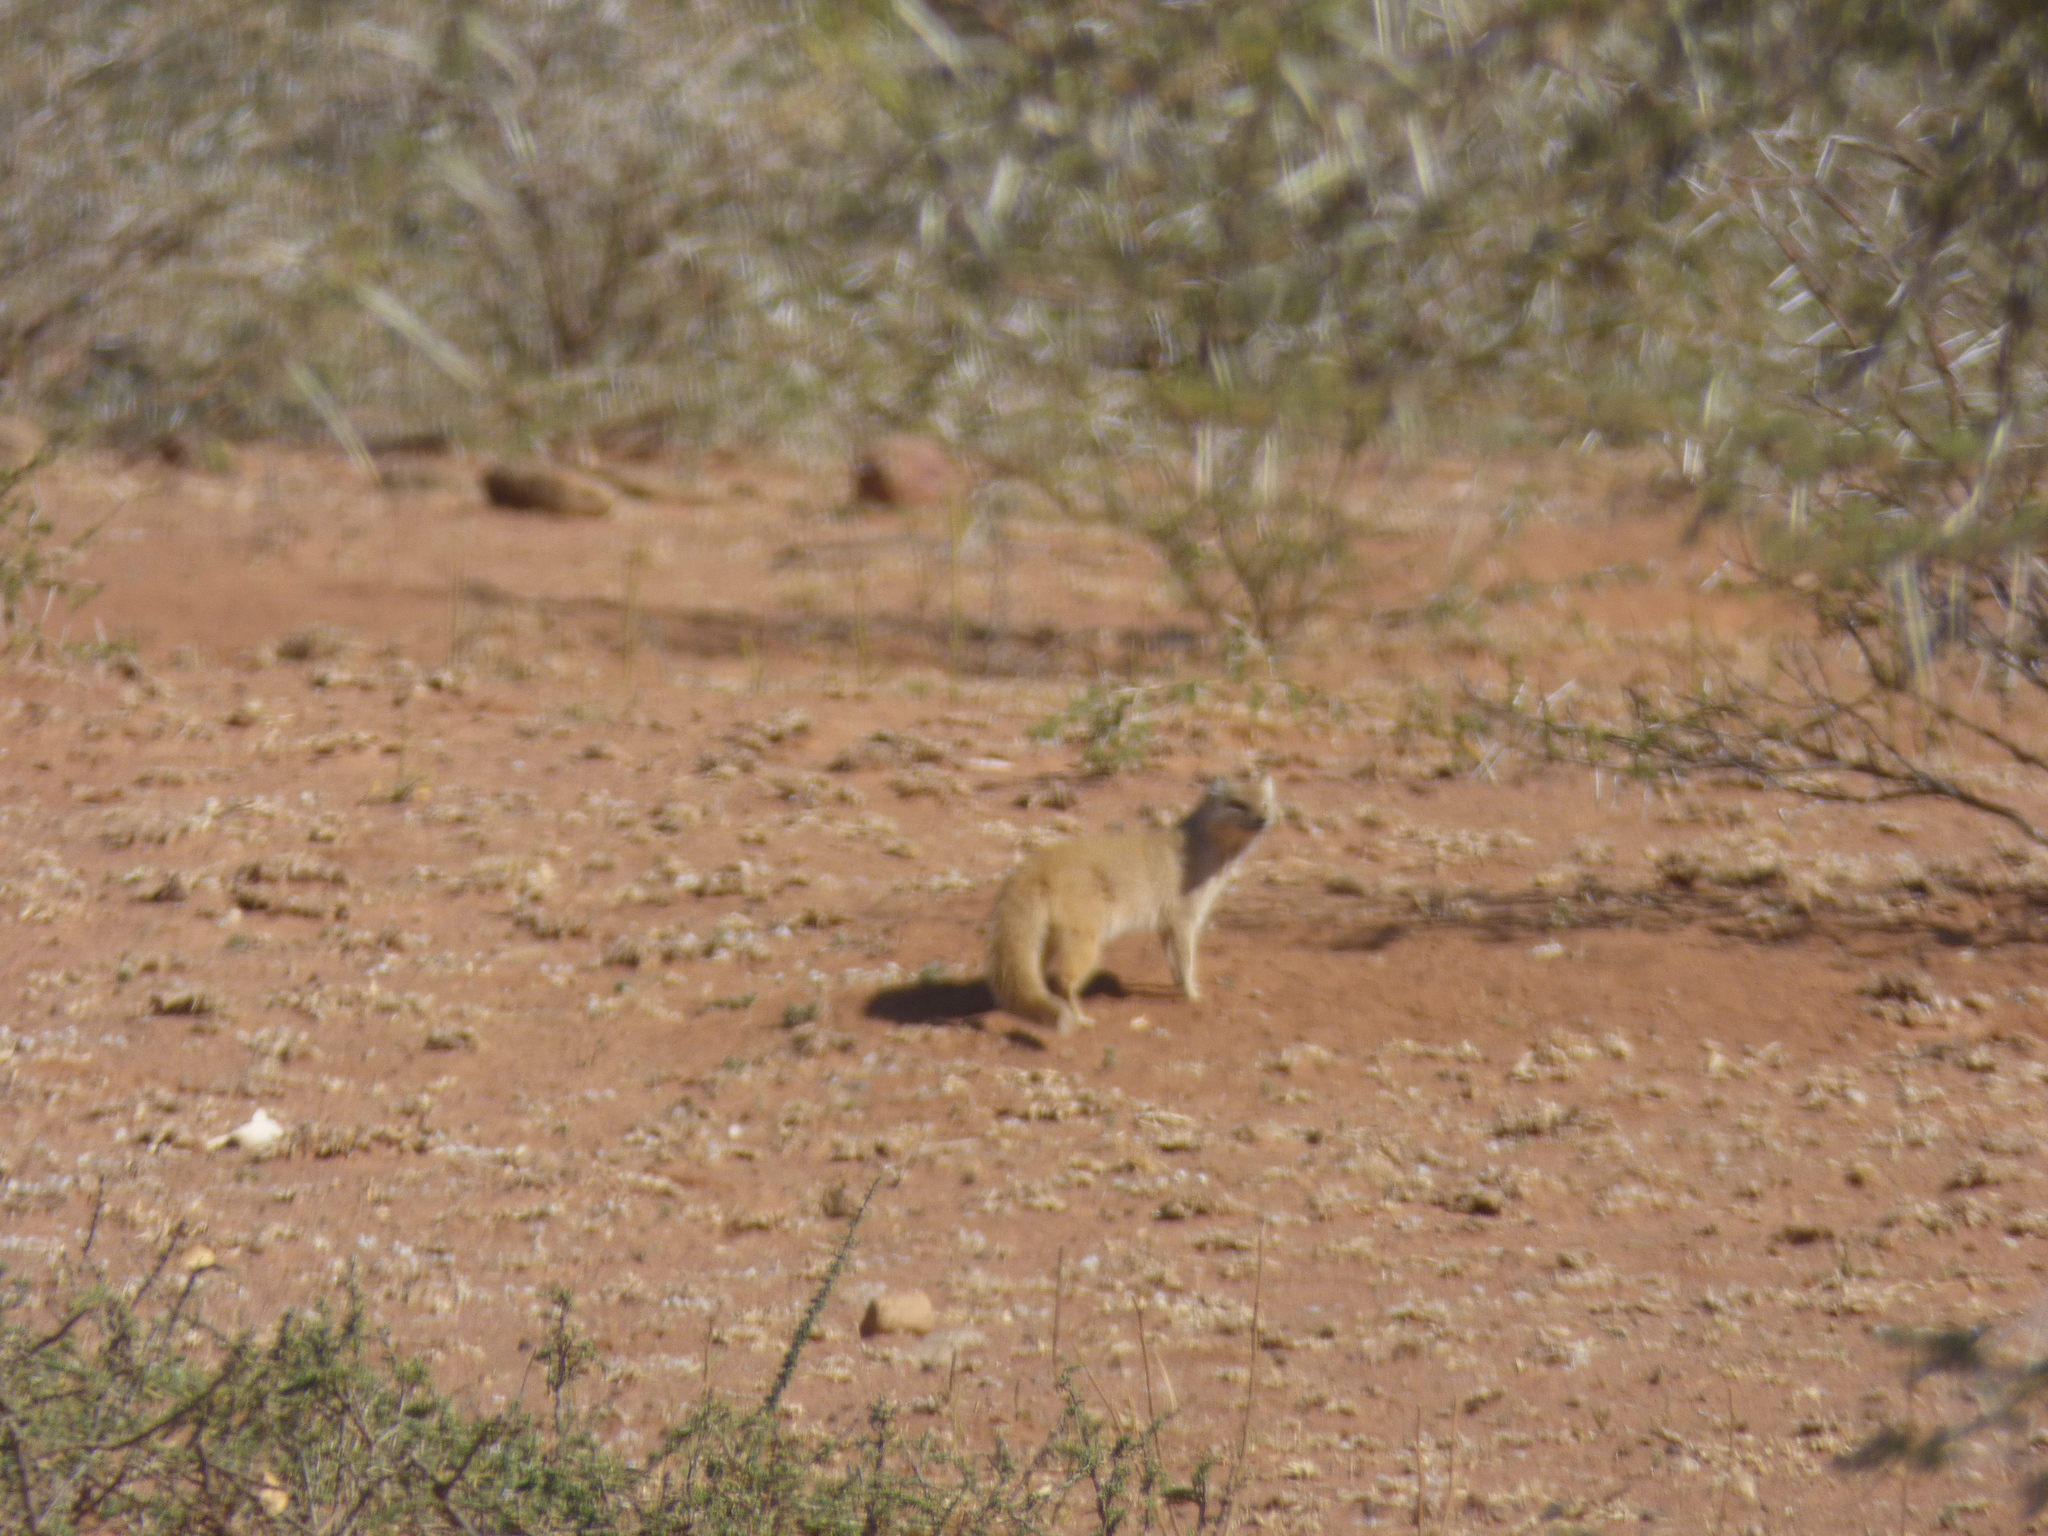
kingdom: Animalia
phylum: Chordata
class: Mammalia
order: Carnivora
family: Herpestidae
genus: Cynictis
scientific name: Cynictis penicillata
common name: Yellow mongoose
